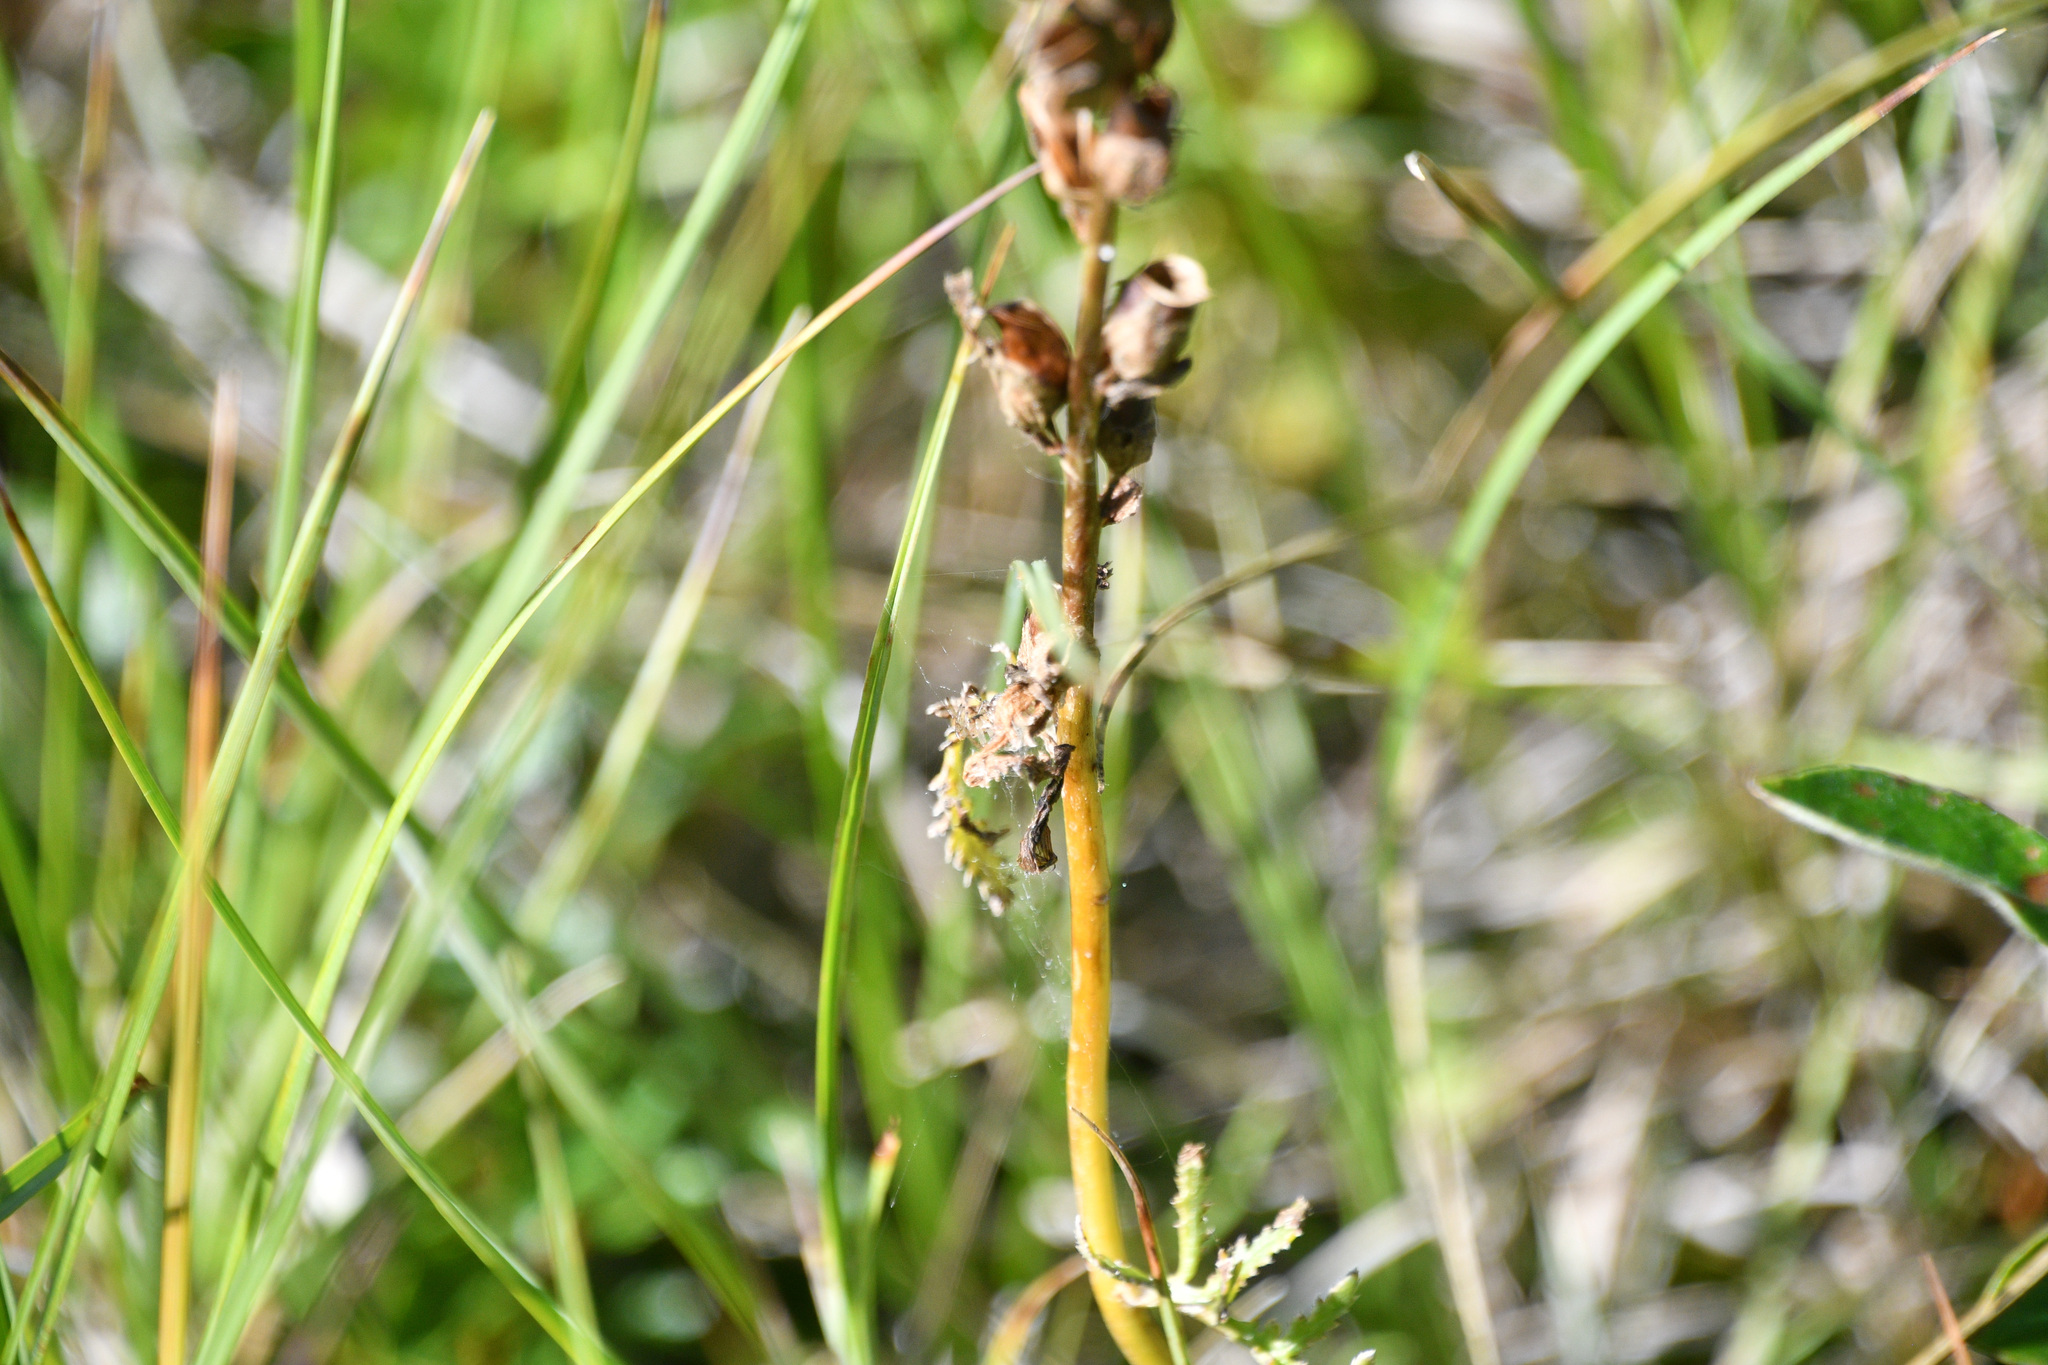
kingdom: Plantae
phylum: Tracheophyta
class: Magnoliopsida
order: Lamiales
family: Orobanchaceae
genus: Pedicularis
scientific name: Pedicularis sudetica
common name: Sudeten lousewort
